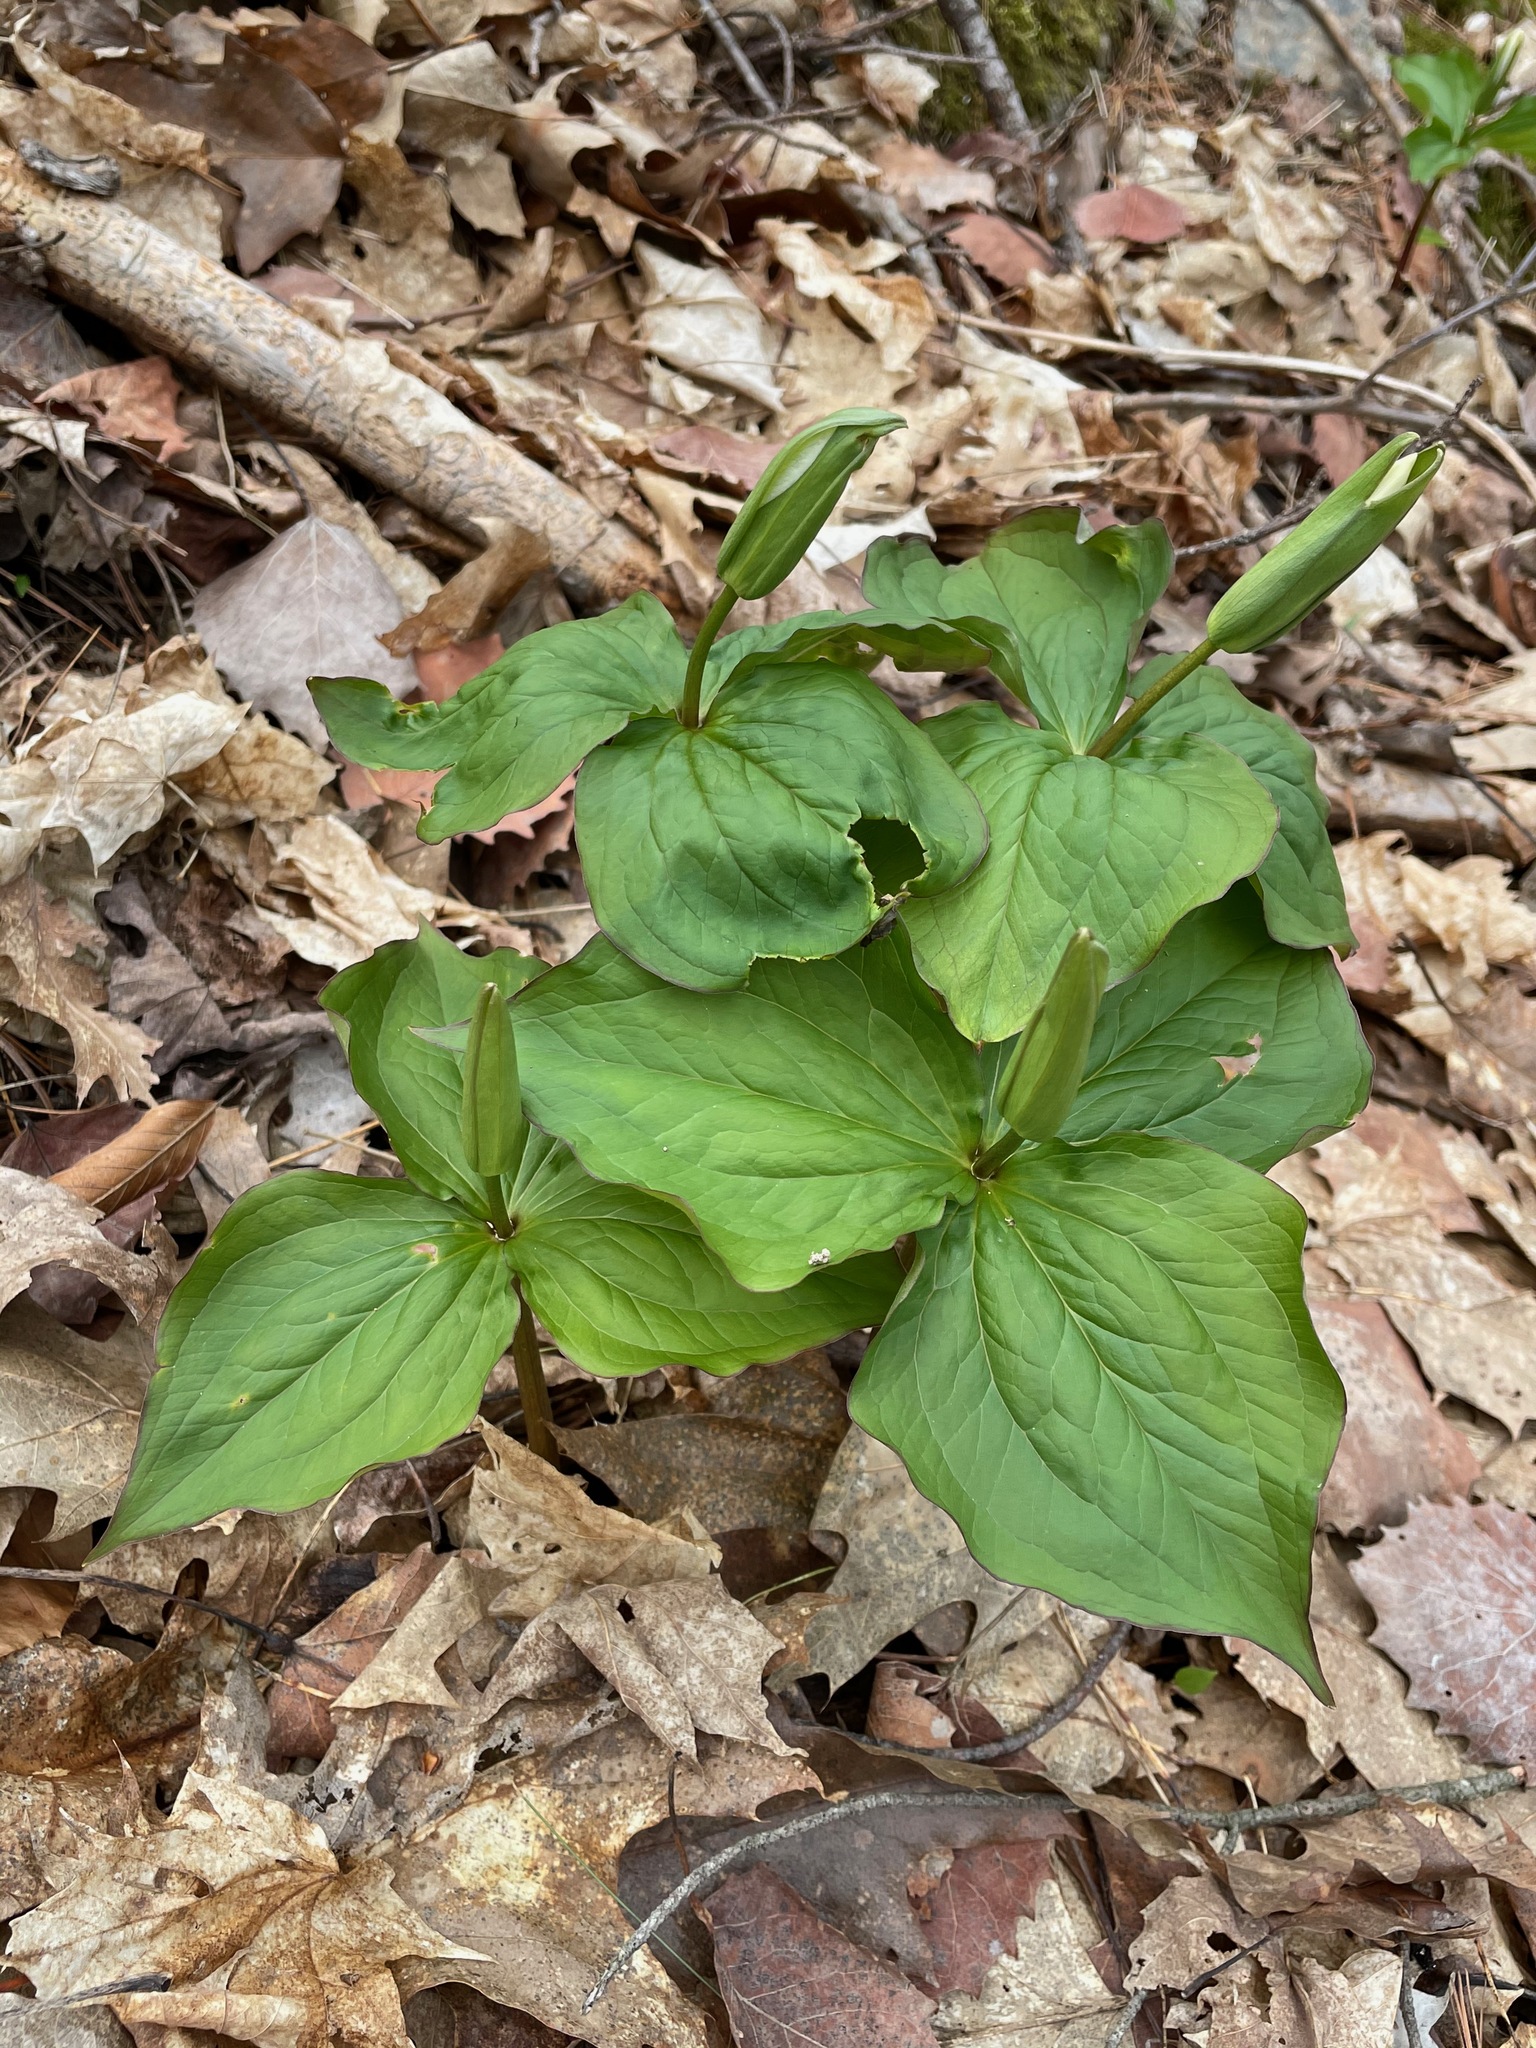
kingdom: Plantae
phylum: Tracheophyta
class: Liliopsida
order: Liliales
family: Melanthiaceae
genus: Trillium
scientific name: Trillium grandiflorum
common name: Great white trillium
